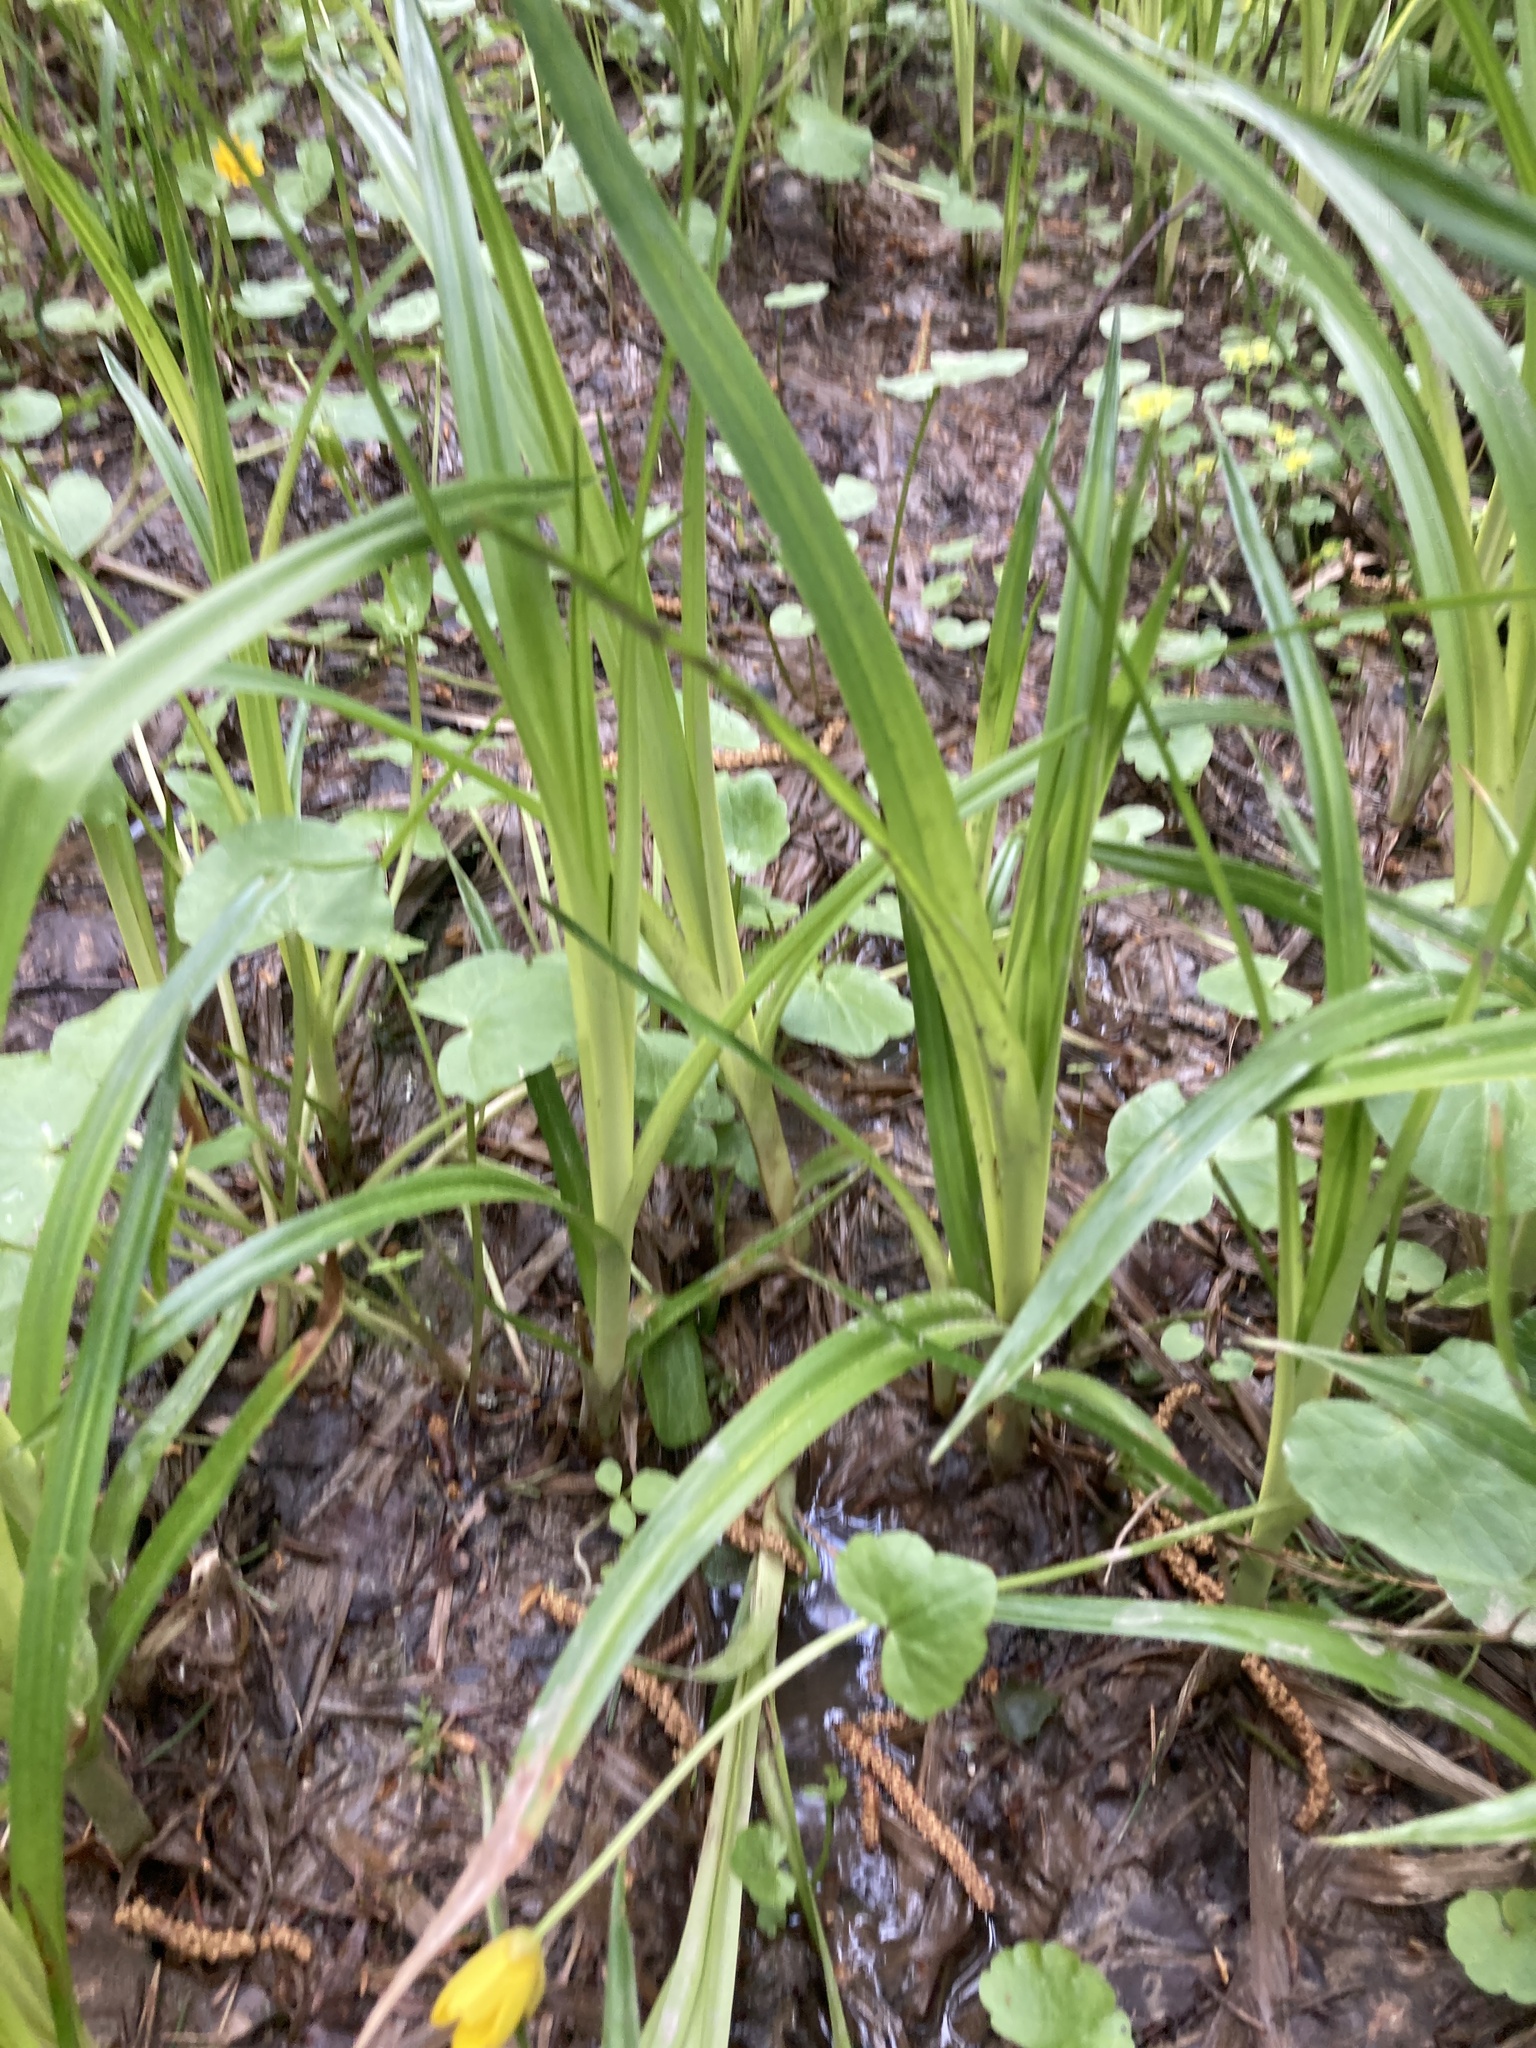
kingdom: Plantae
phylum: Tracheophyta
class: Liliopsida
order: Poales
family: Cyperaceae
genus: Scirpus
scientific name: Scirpus sylvaticus
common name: Wood club-rush
